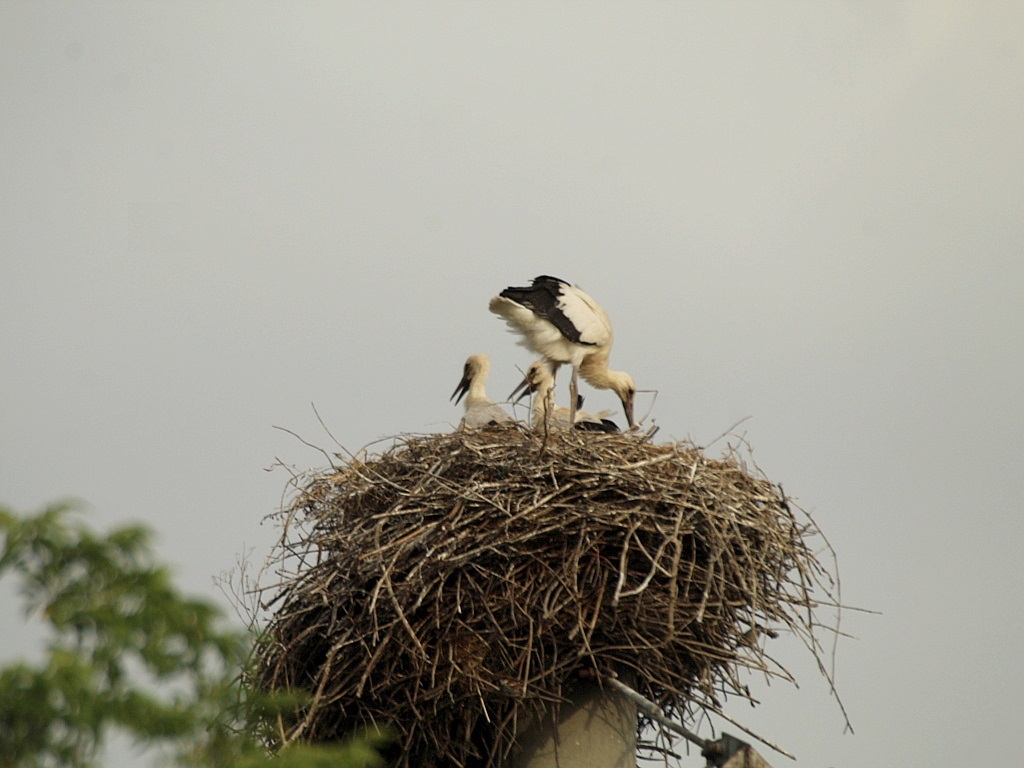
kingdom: Animalia
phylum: Chordata
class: Aves
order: Ciconiiformes
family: Ciconiidae
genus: Ciconia
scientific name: Ciconia ciconia
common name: White stork
